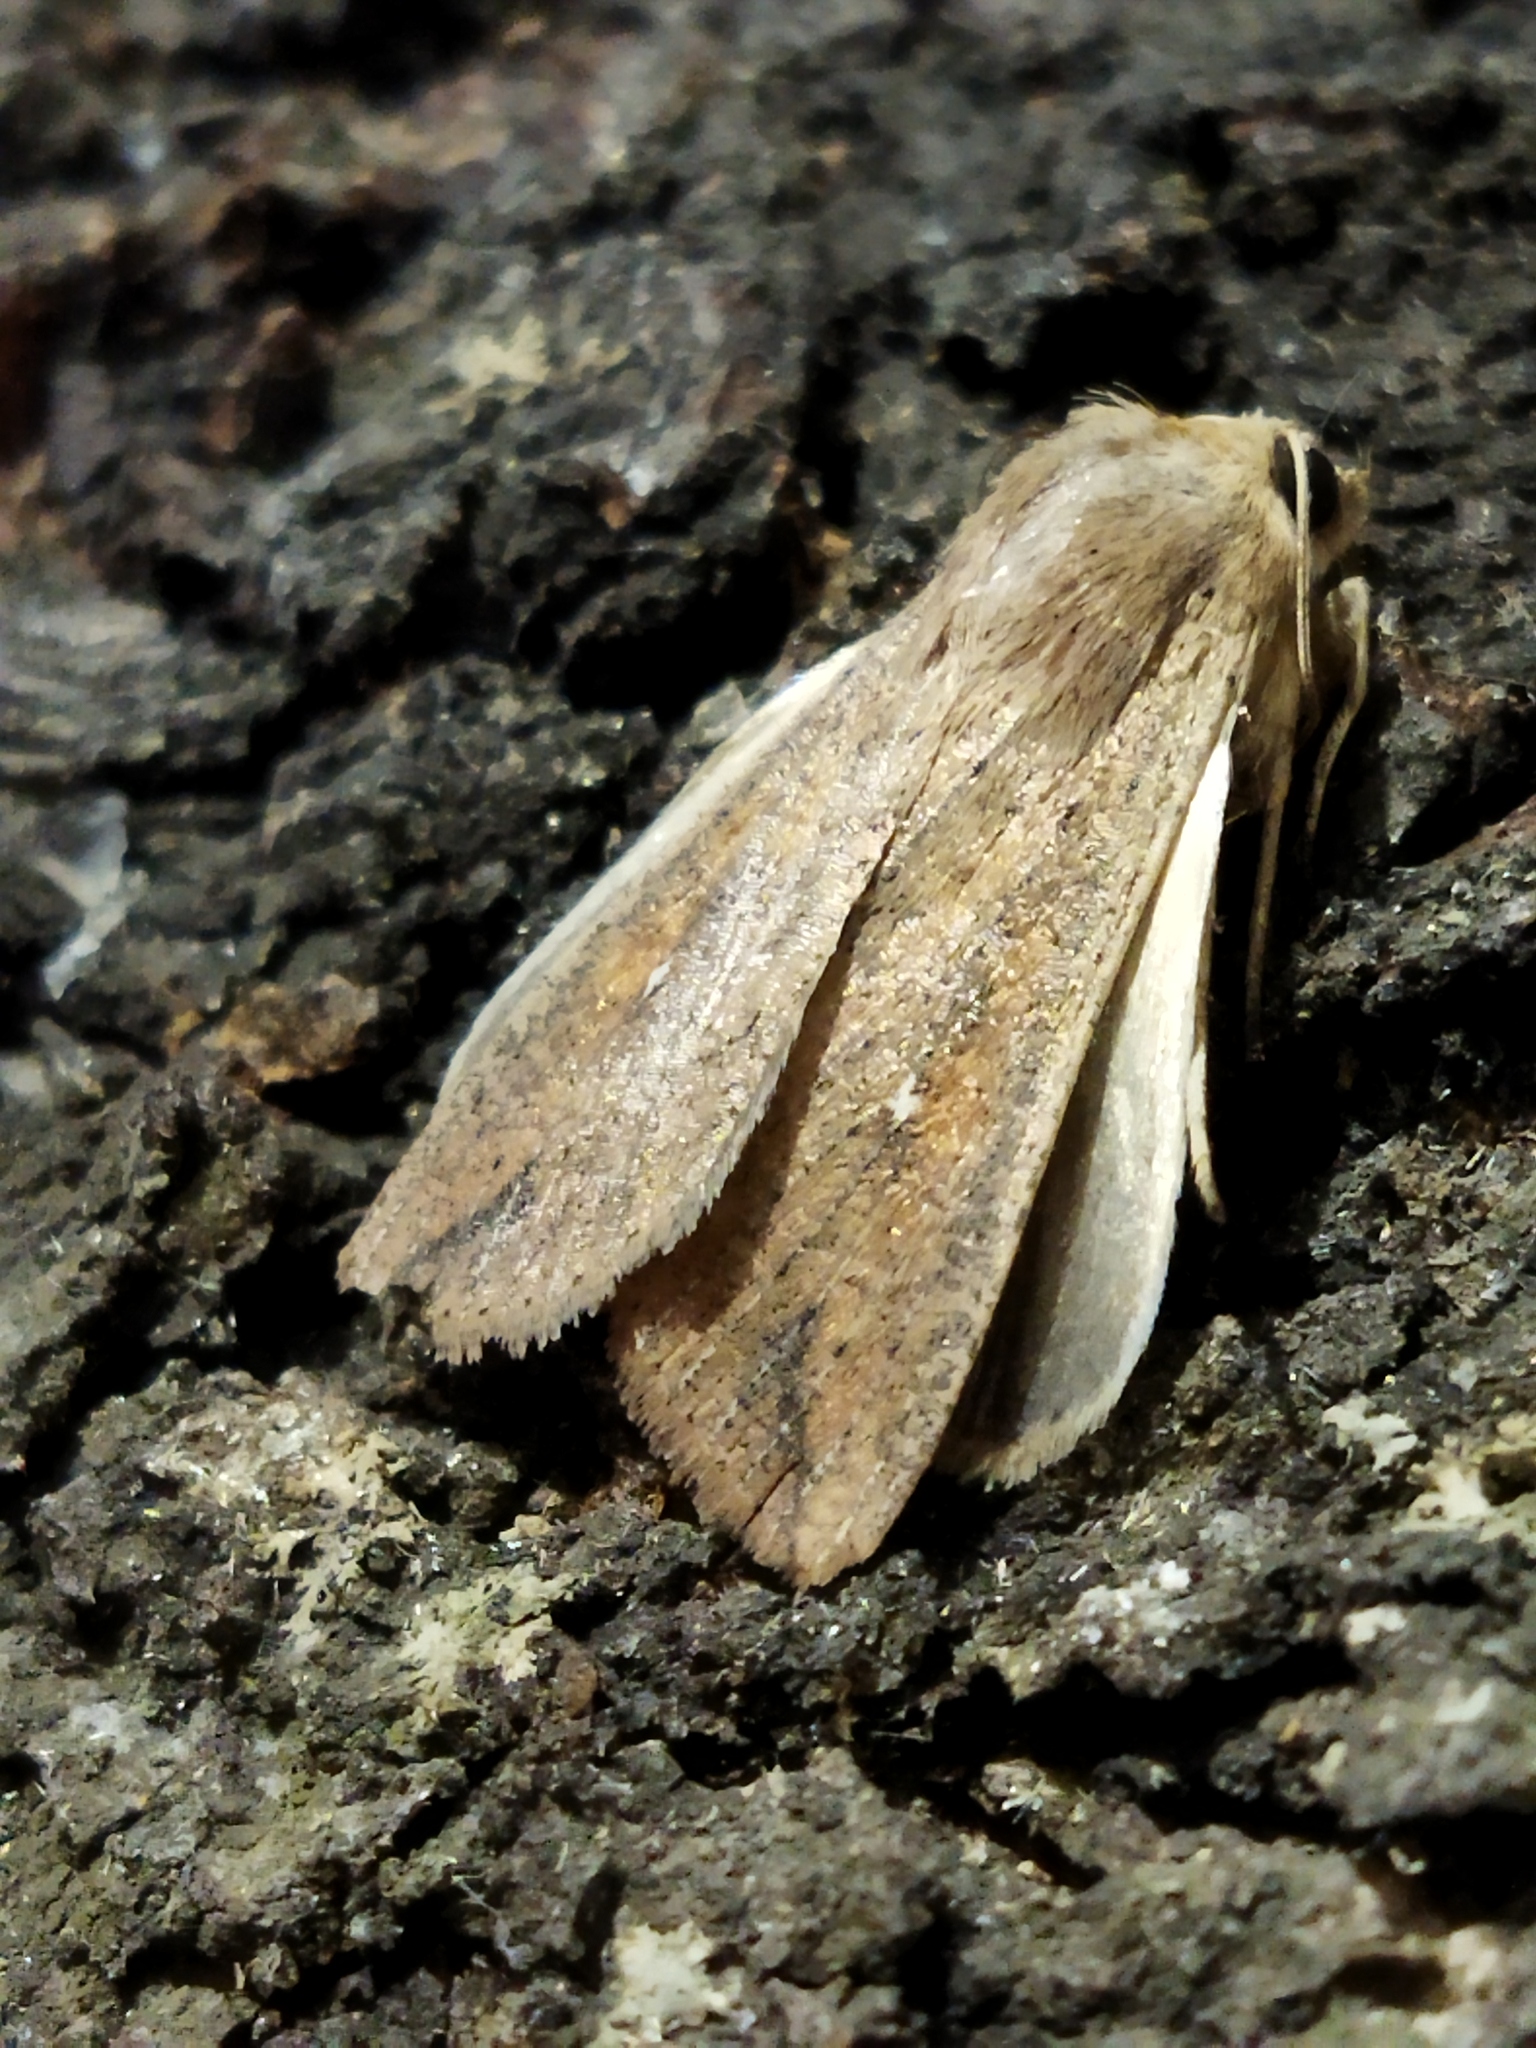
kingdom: Animalia
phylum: Arthropoda
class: Insecta
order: Lepidoptera
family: Noctuidae
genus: Mythimna
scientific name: Mythimna unipuncta
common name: White-speck
